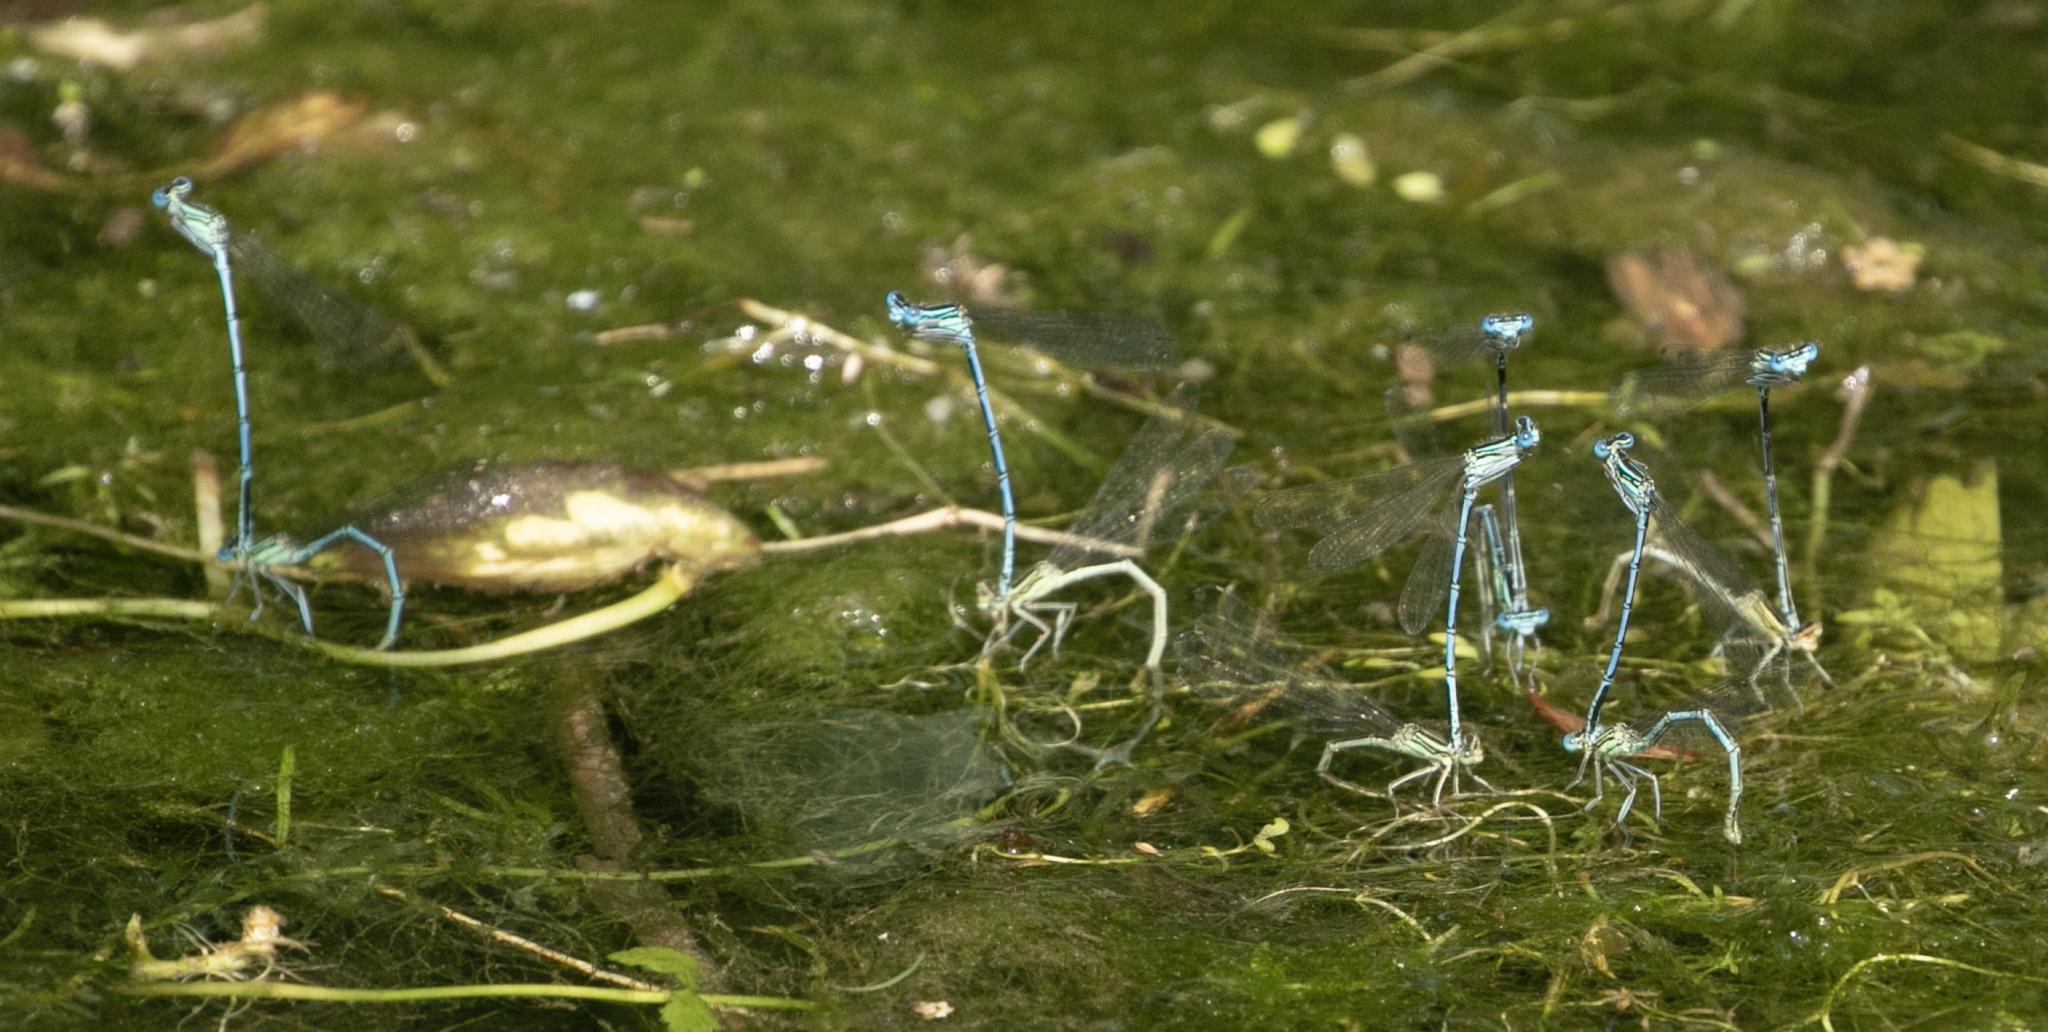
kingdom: Animalia
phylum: Arthropoda
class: Insecta
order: Odonata
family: Platycnemididae
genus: Platycnemis
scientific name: Platycnemis pennipes
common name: White-legged damselfly
